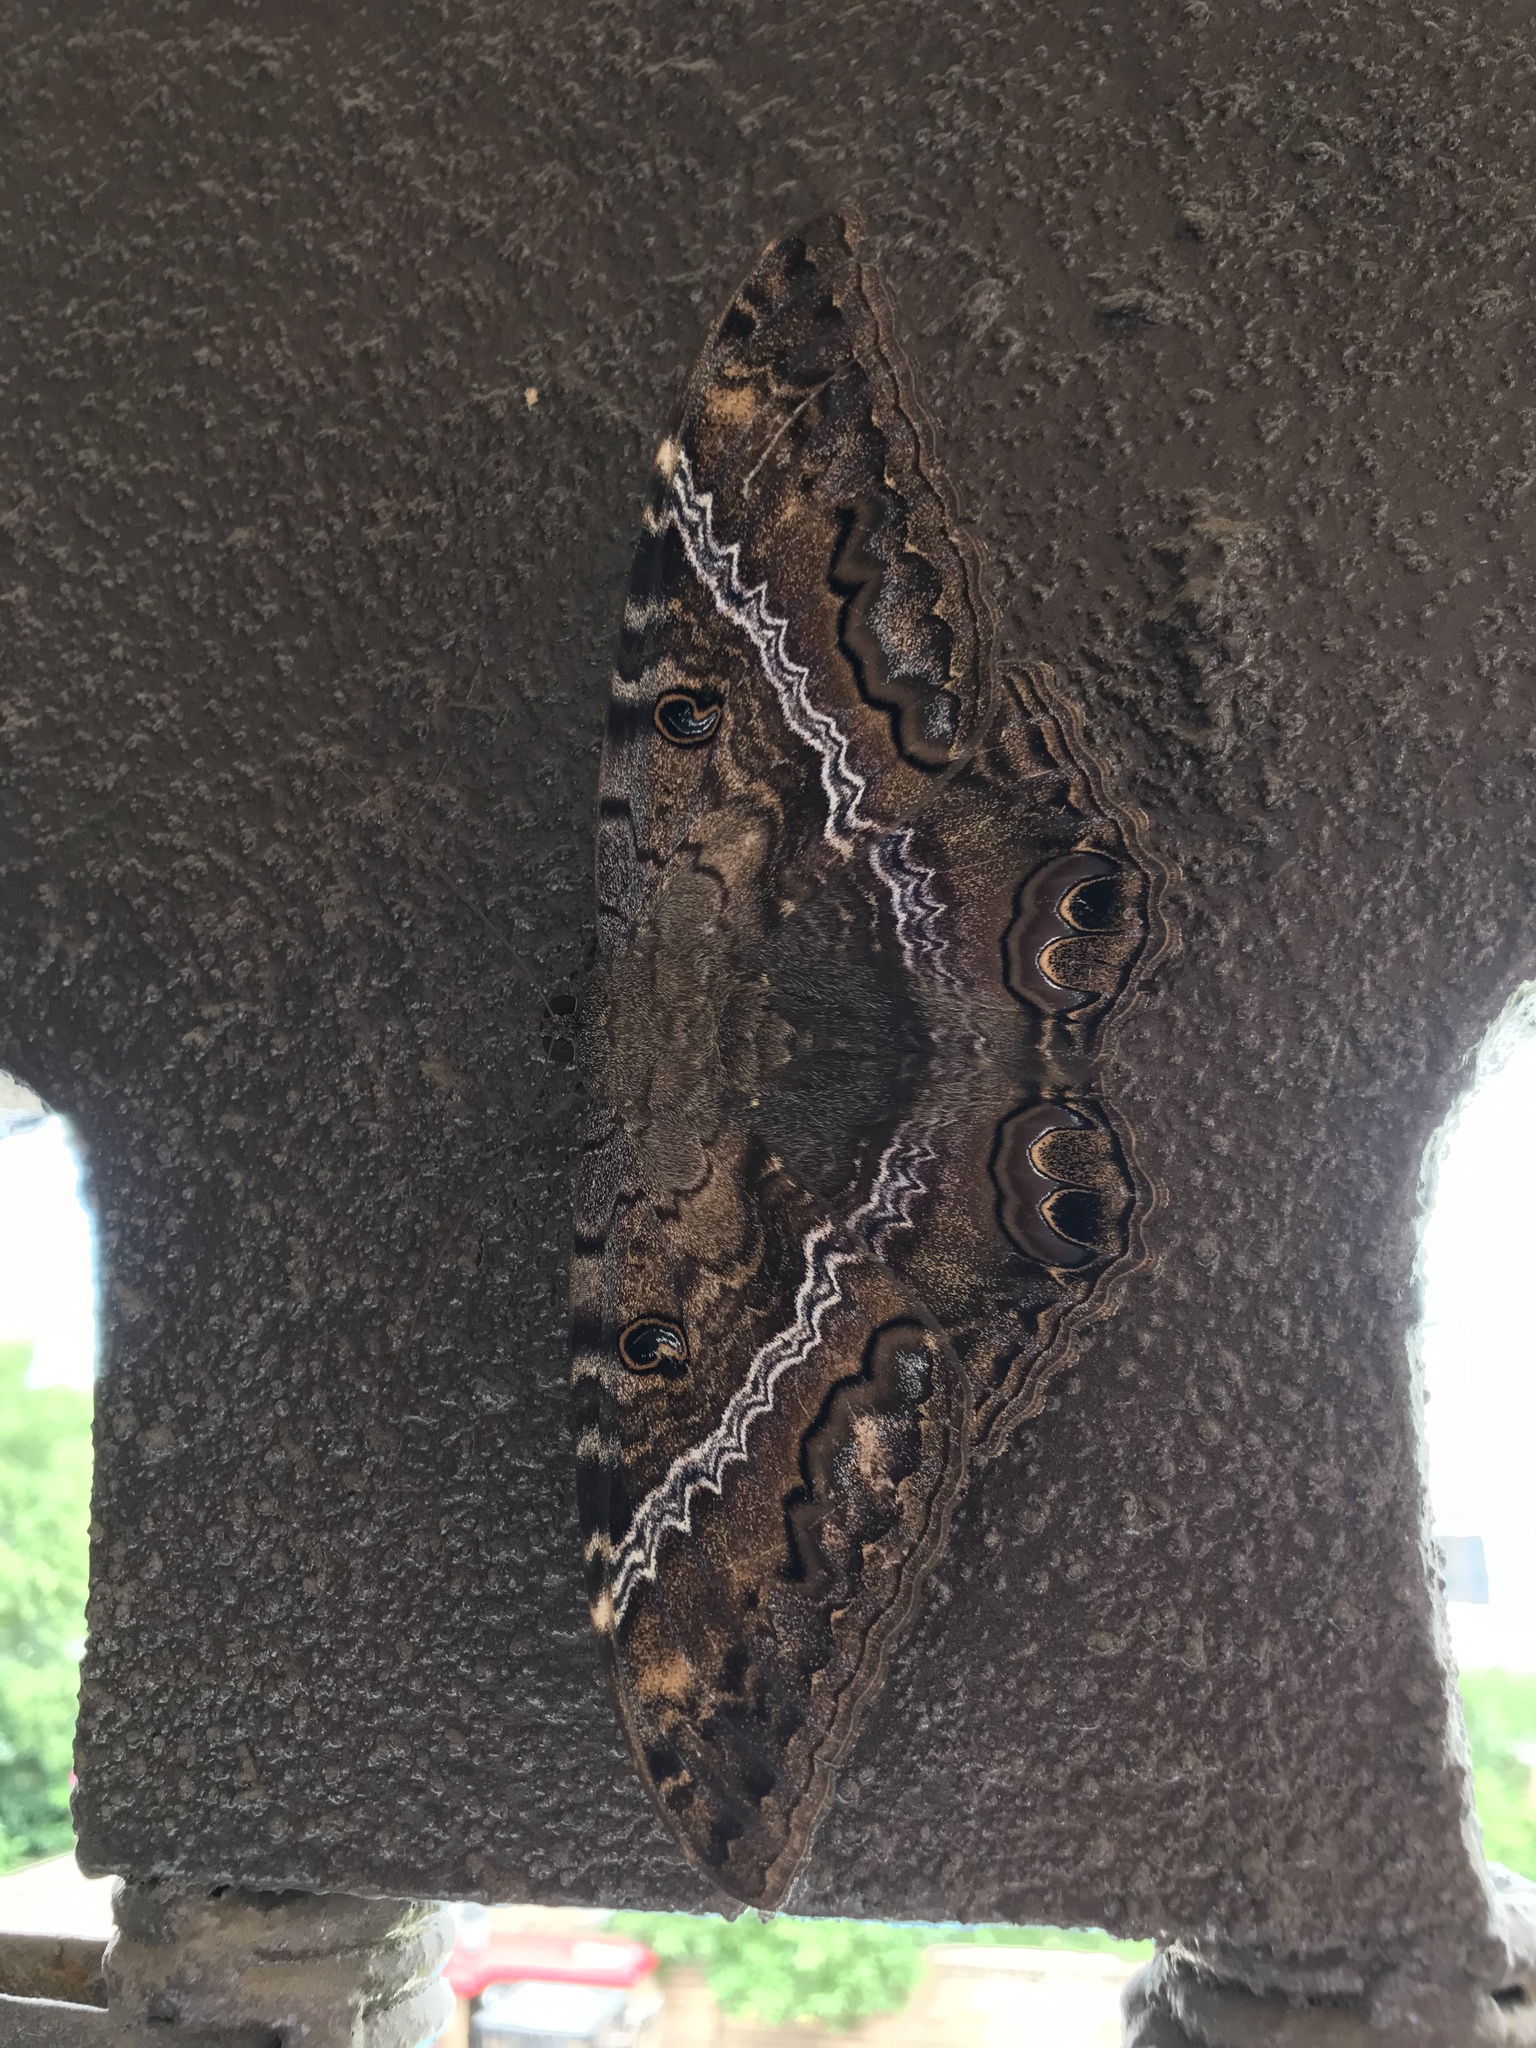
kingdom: Animalia
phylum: Arthropoda
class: Insecta
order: Lepidoptera
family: Erebidae
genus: Ascalapha
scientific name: Ascalapha odorata
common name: Black witch
